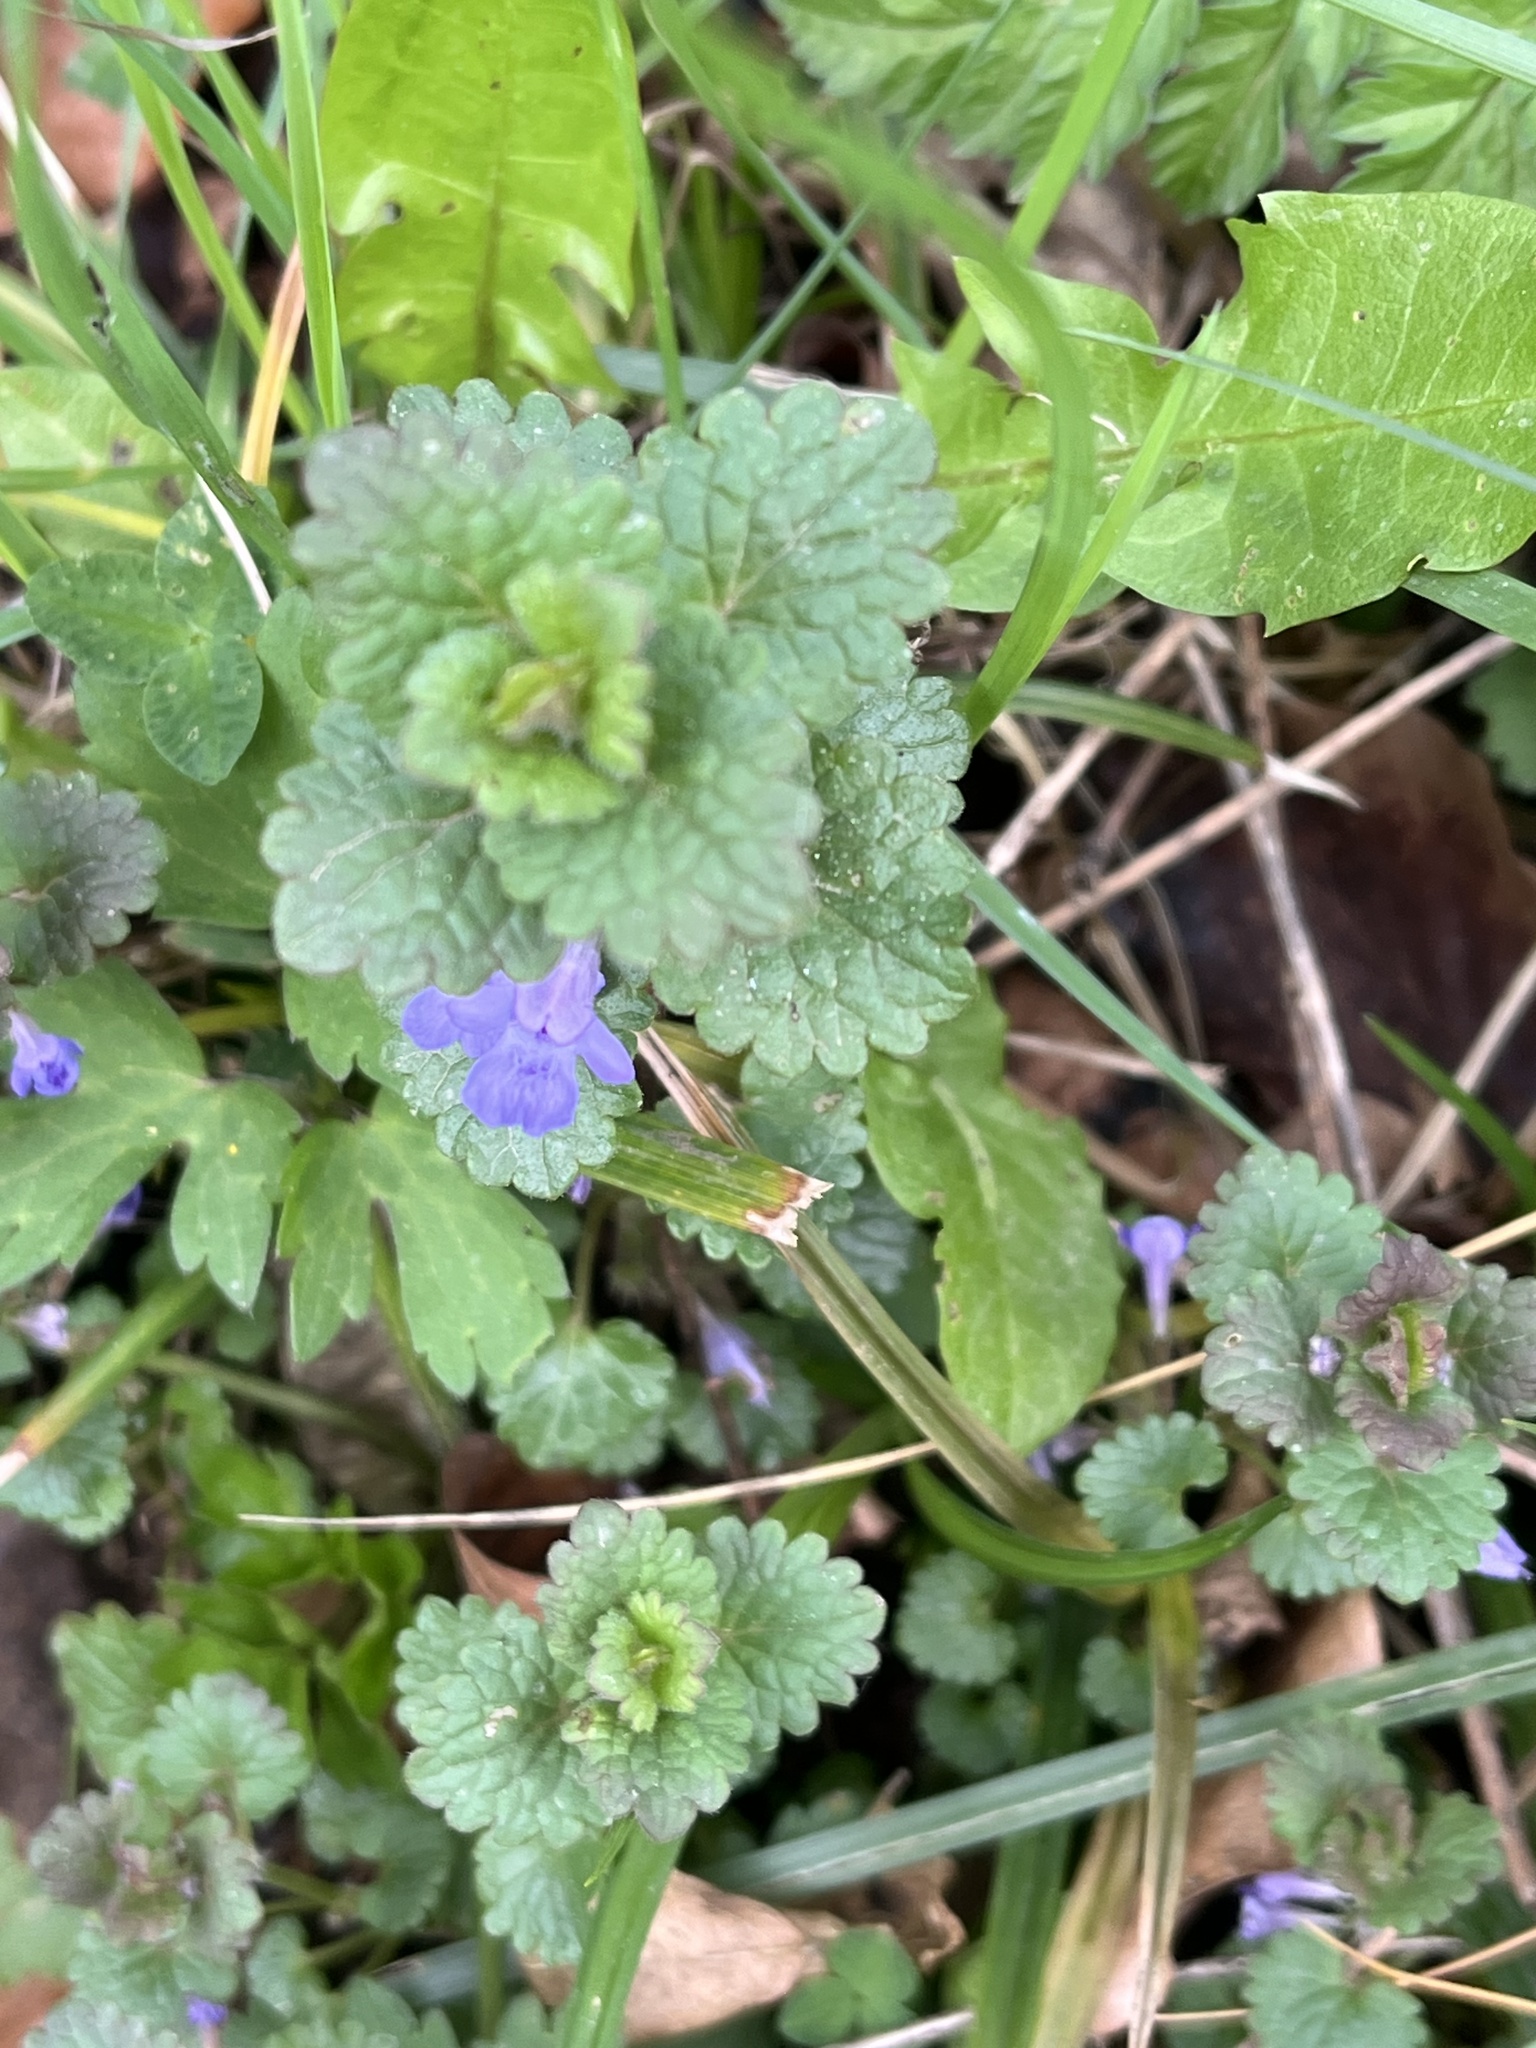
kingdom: Plantae
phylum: Tracheophyta
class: Magnoliopsida
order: Lamiales
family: Lamiaceae
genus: Glechoma
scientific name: Glechoma hederacea
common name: Ground ivy
